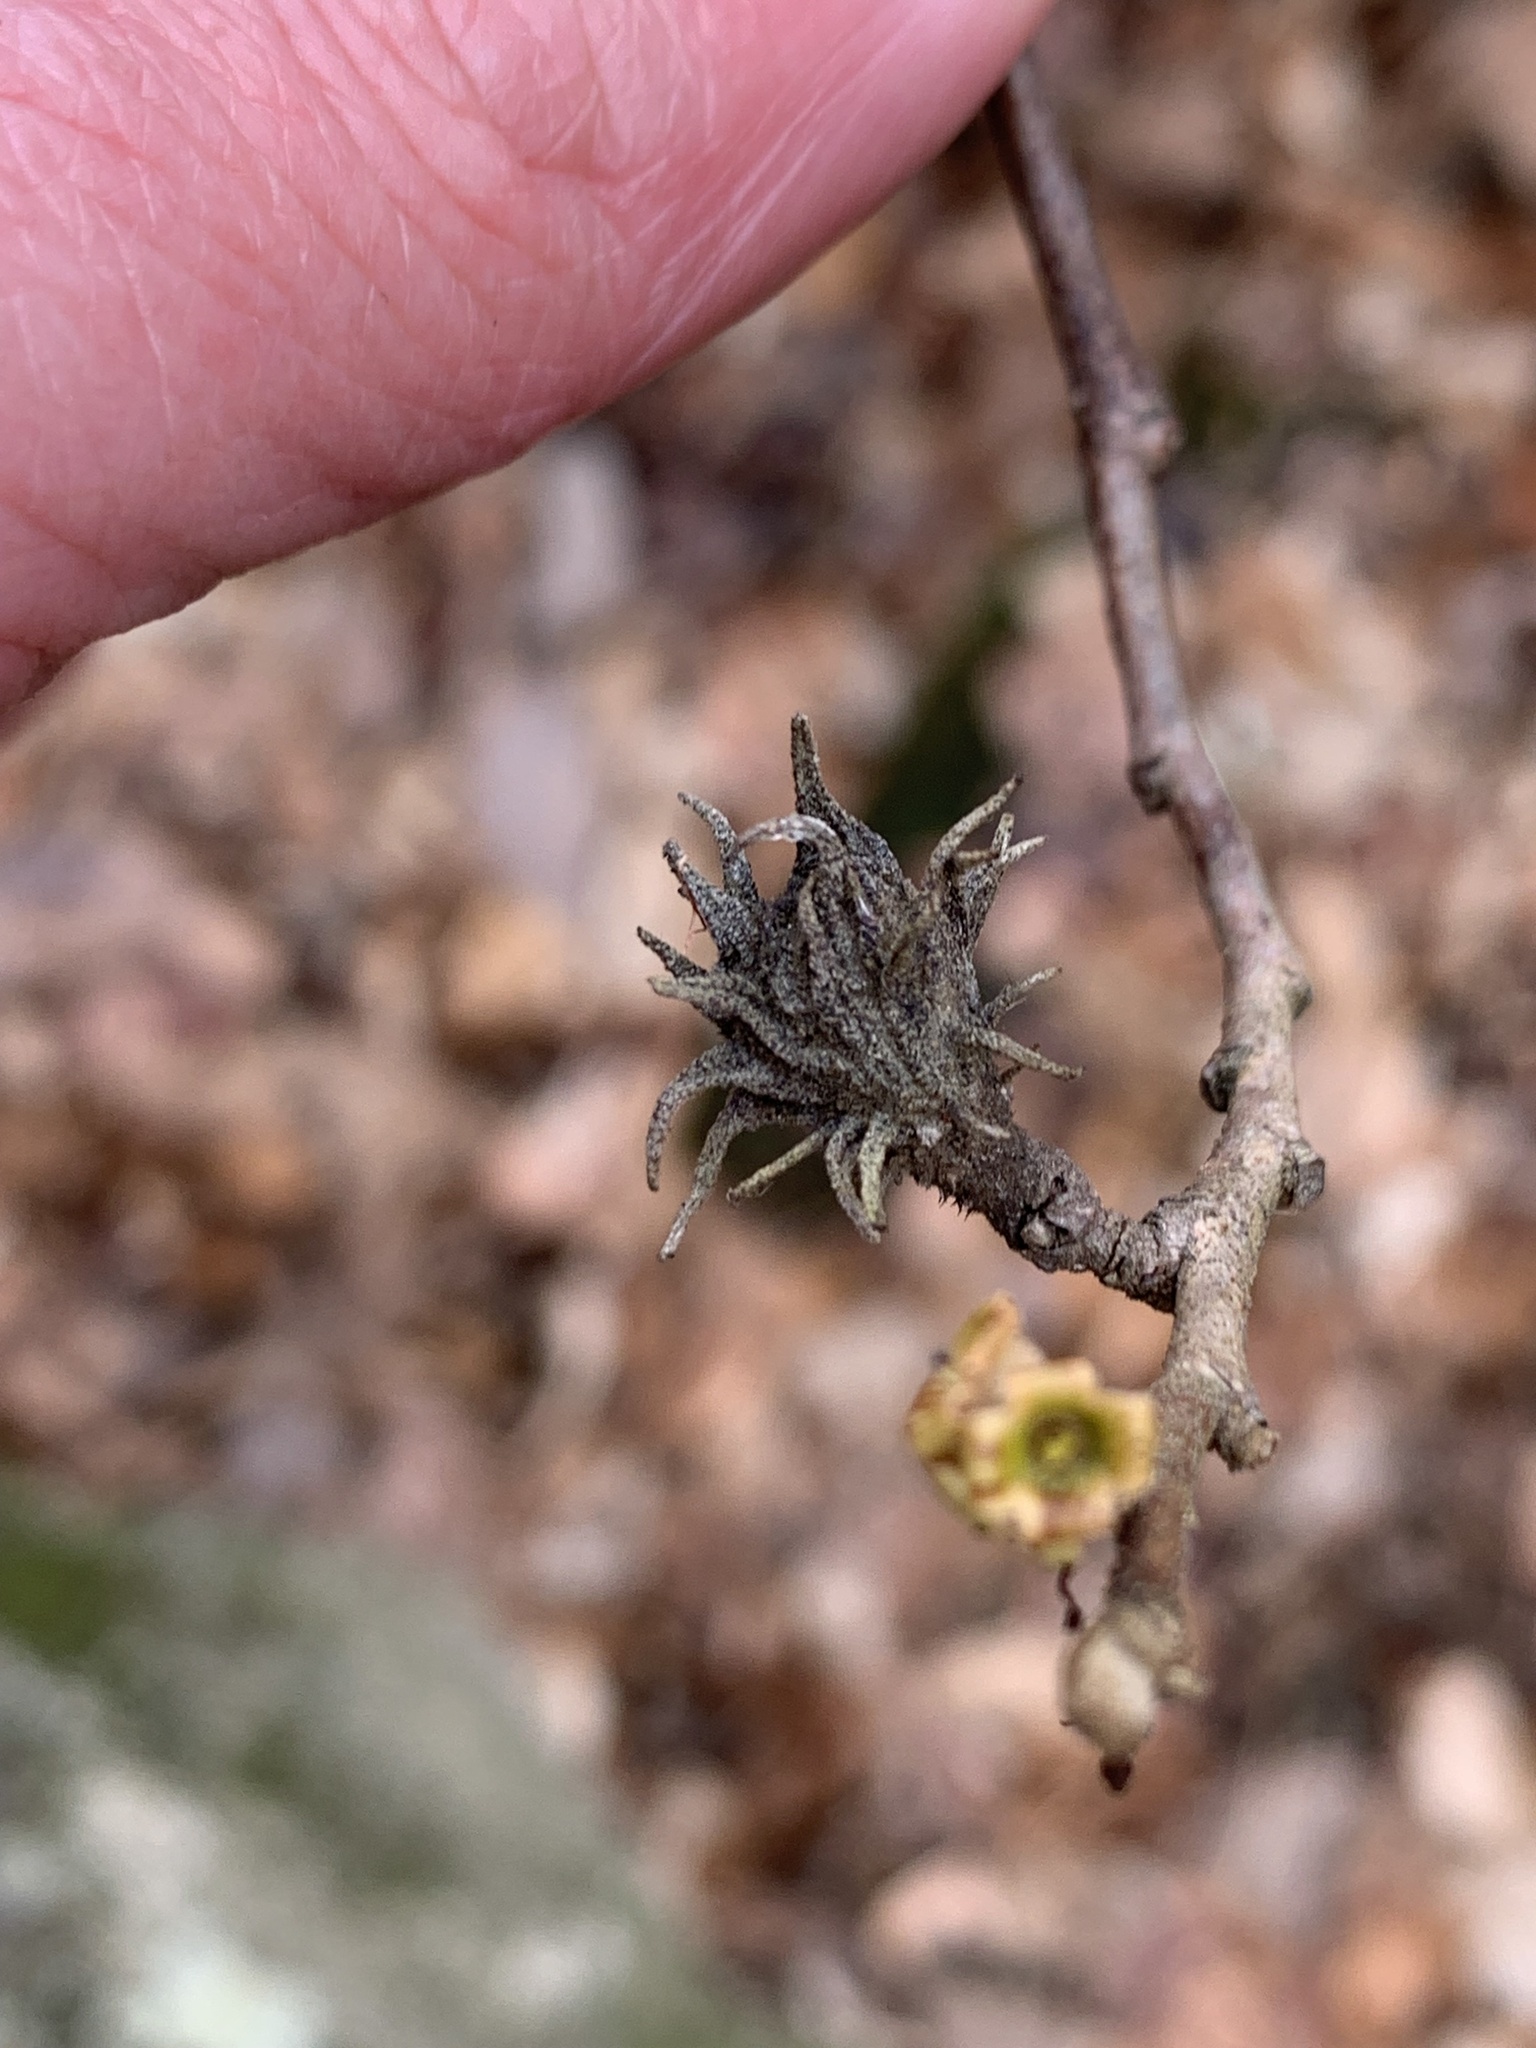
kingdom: Animalia
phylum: Arthropoda
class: Insecta
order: Hemiptera
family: Aphididae
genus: Hamamelistes
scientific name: Hamamelistes spinosus
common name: Witch hazel gall aphid
